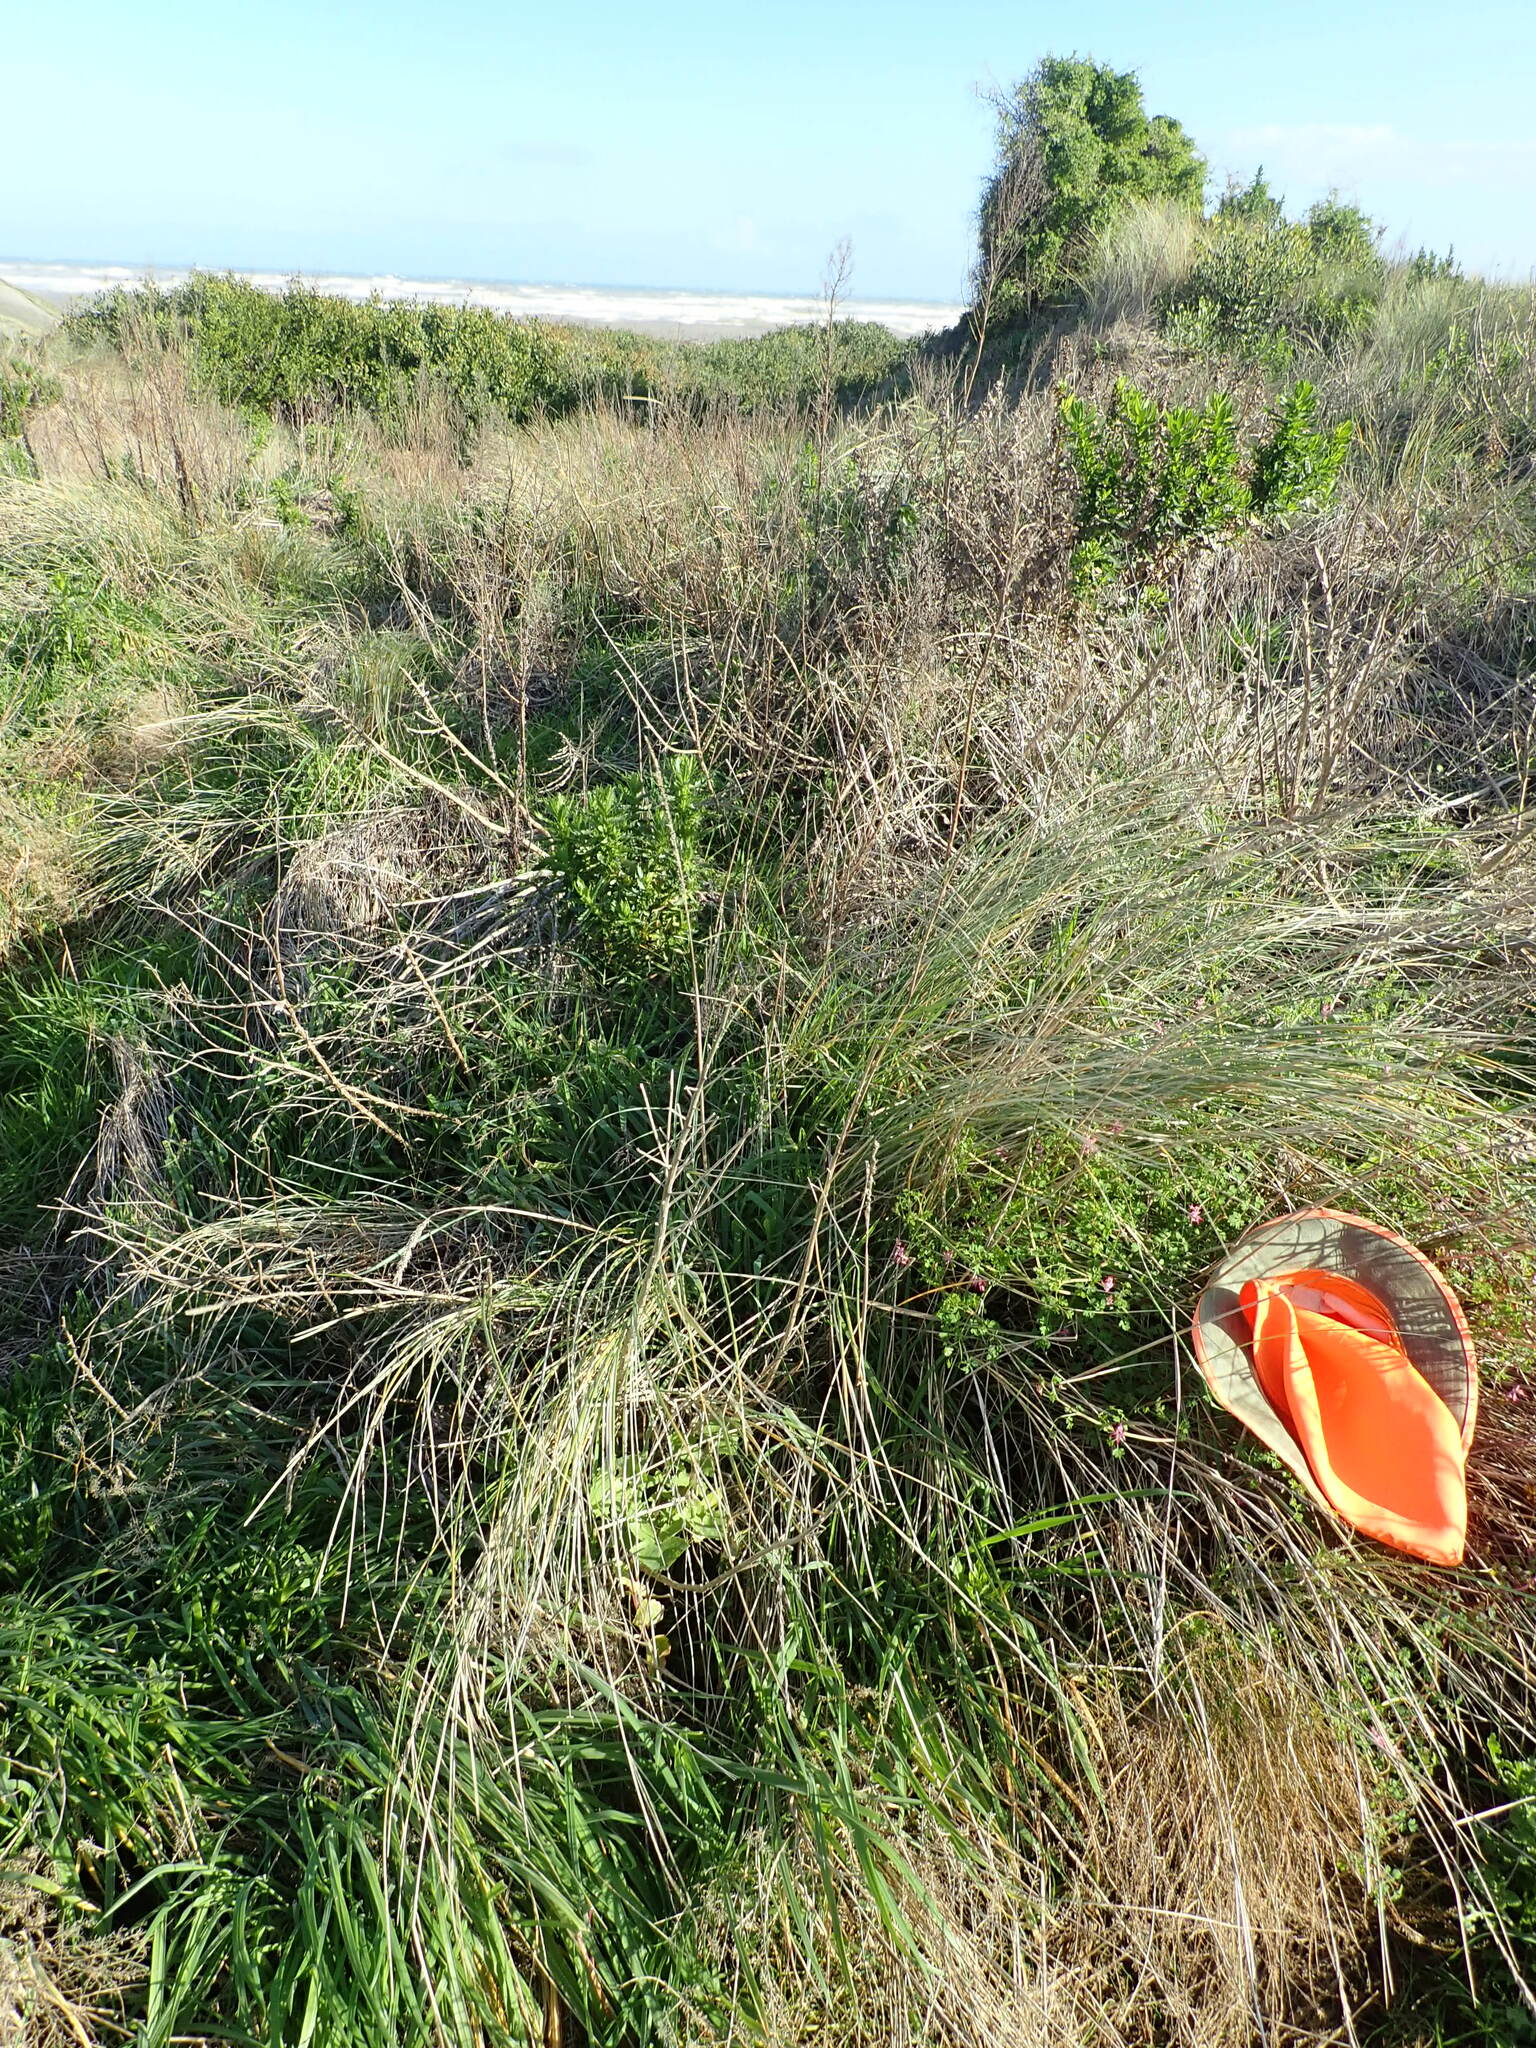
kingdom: Plantae
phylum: Tracheophyta
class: Magnoliopsida
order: Ranunculales
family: Papaveraceae
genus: Fumaria
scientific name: Fumaria muralis
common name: Common ramping-fumitory
